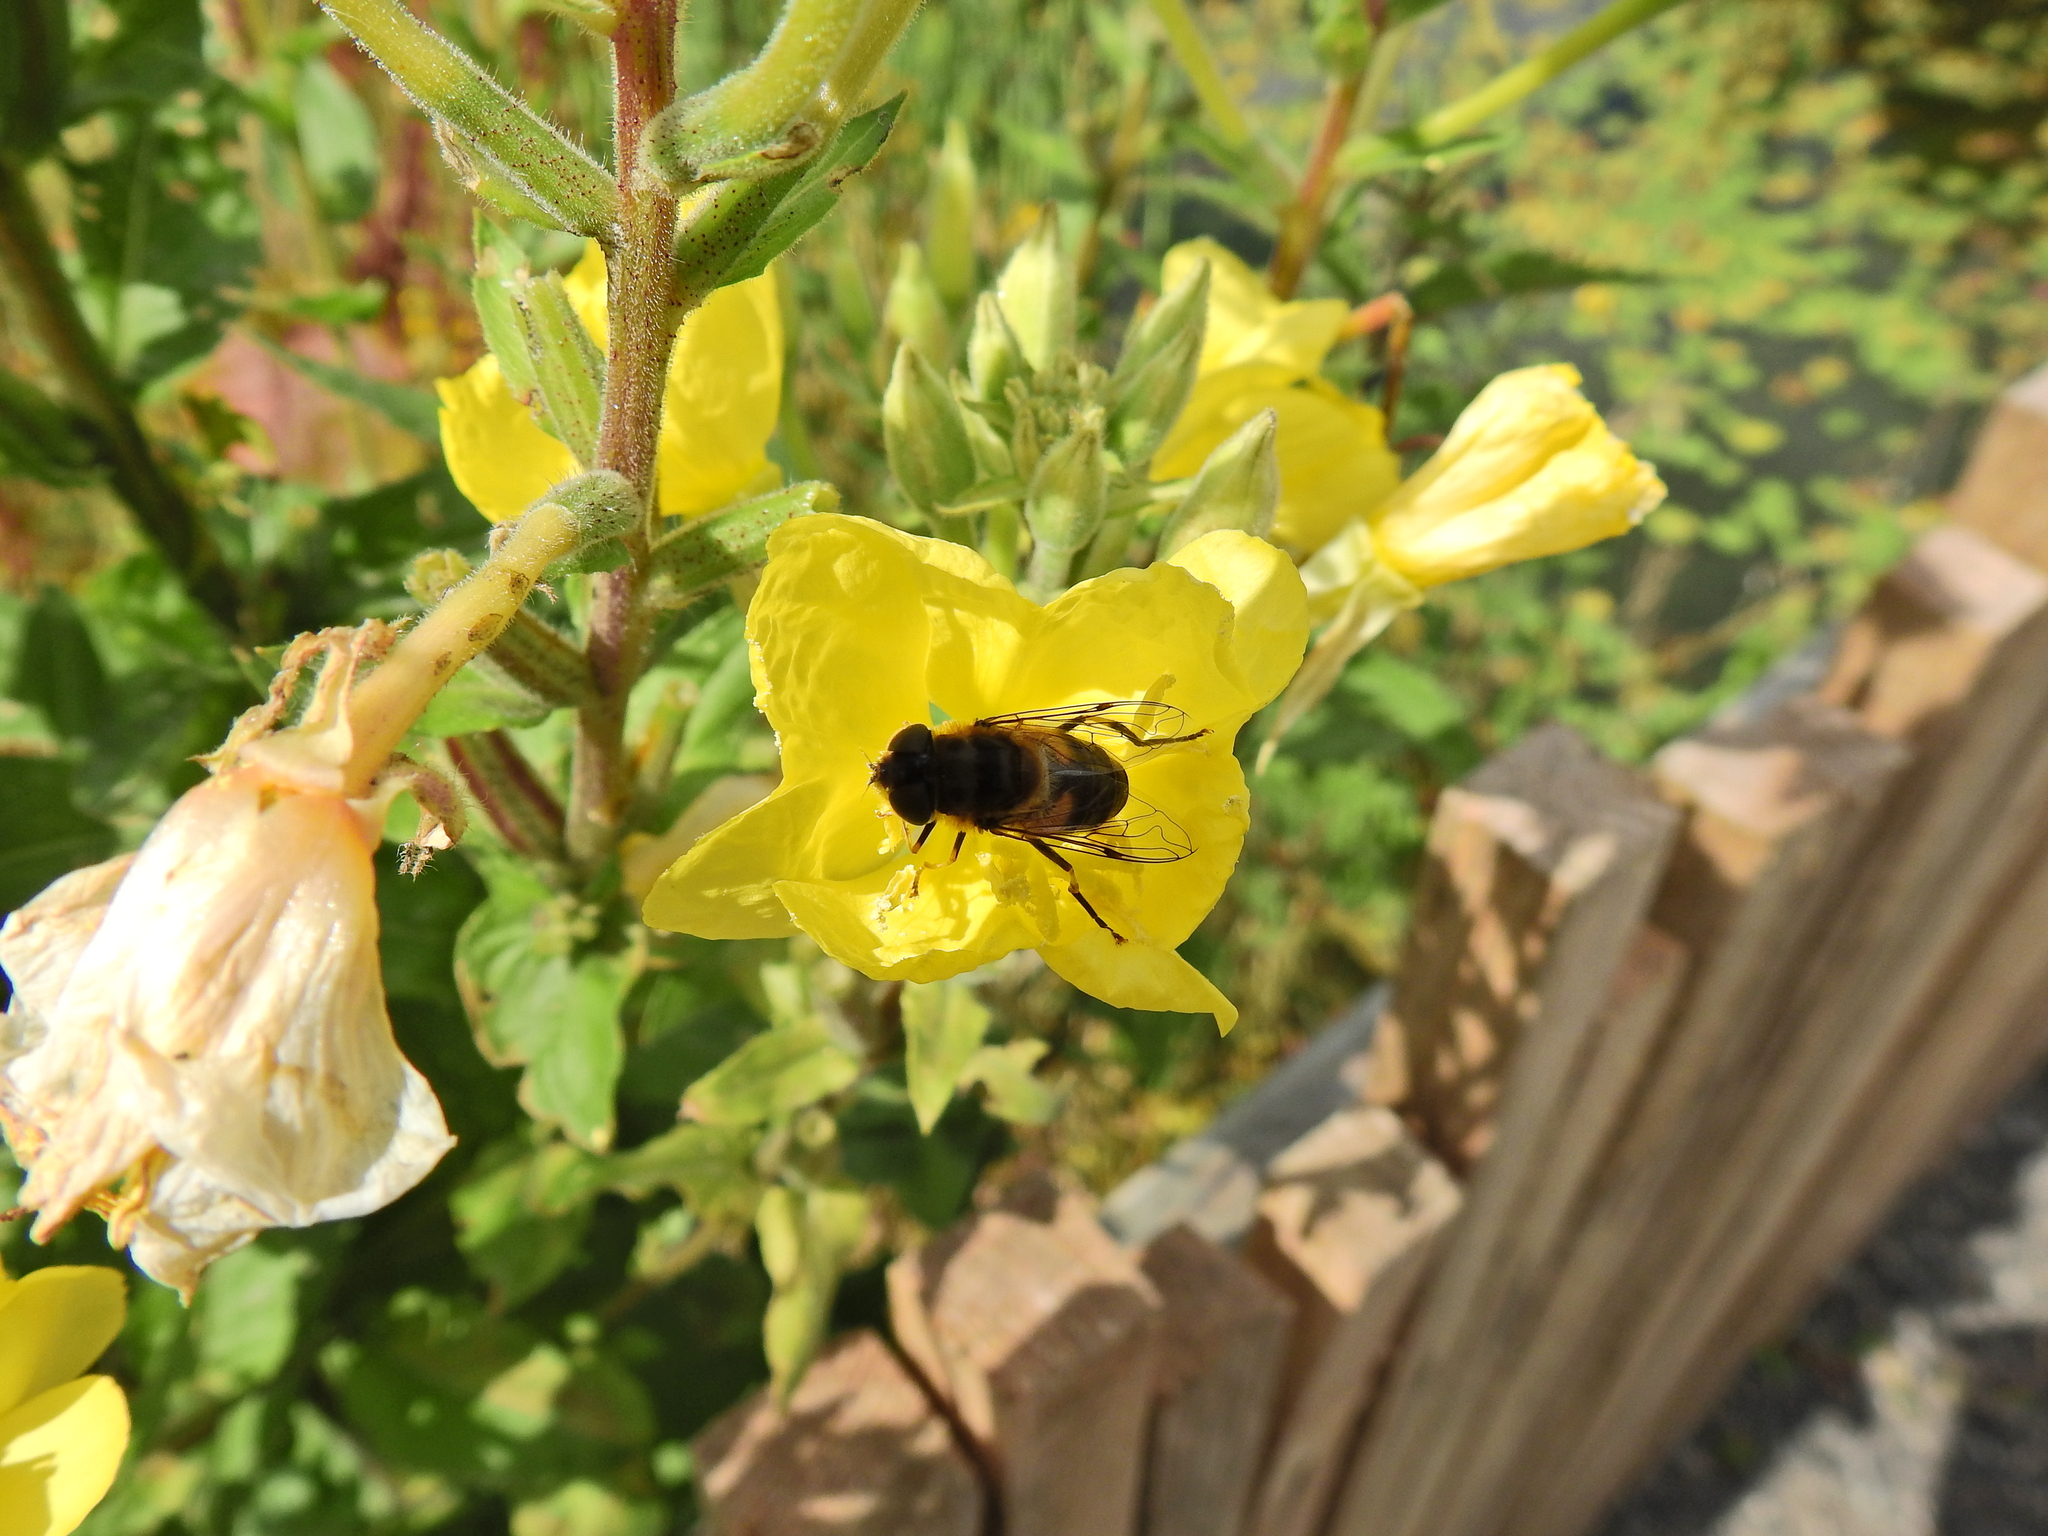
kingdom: Animalia
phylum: Arthropoda
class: Insecta
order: Diptera
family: Syrphidae
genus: Eristalis
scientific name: Eristalis pertinax
